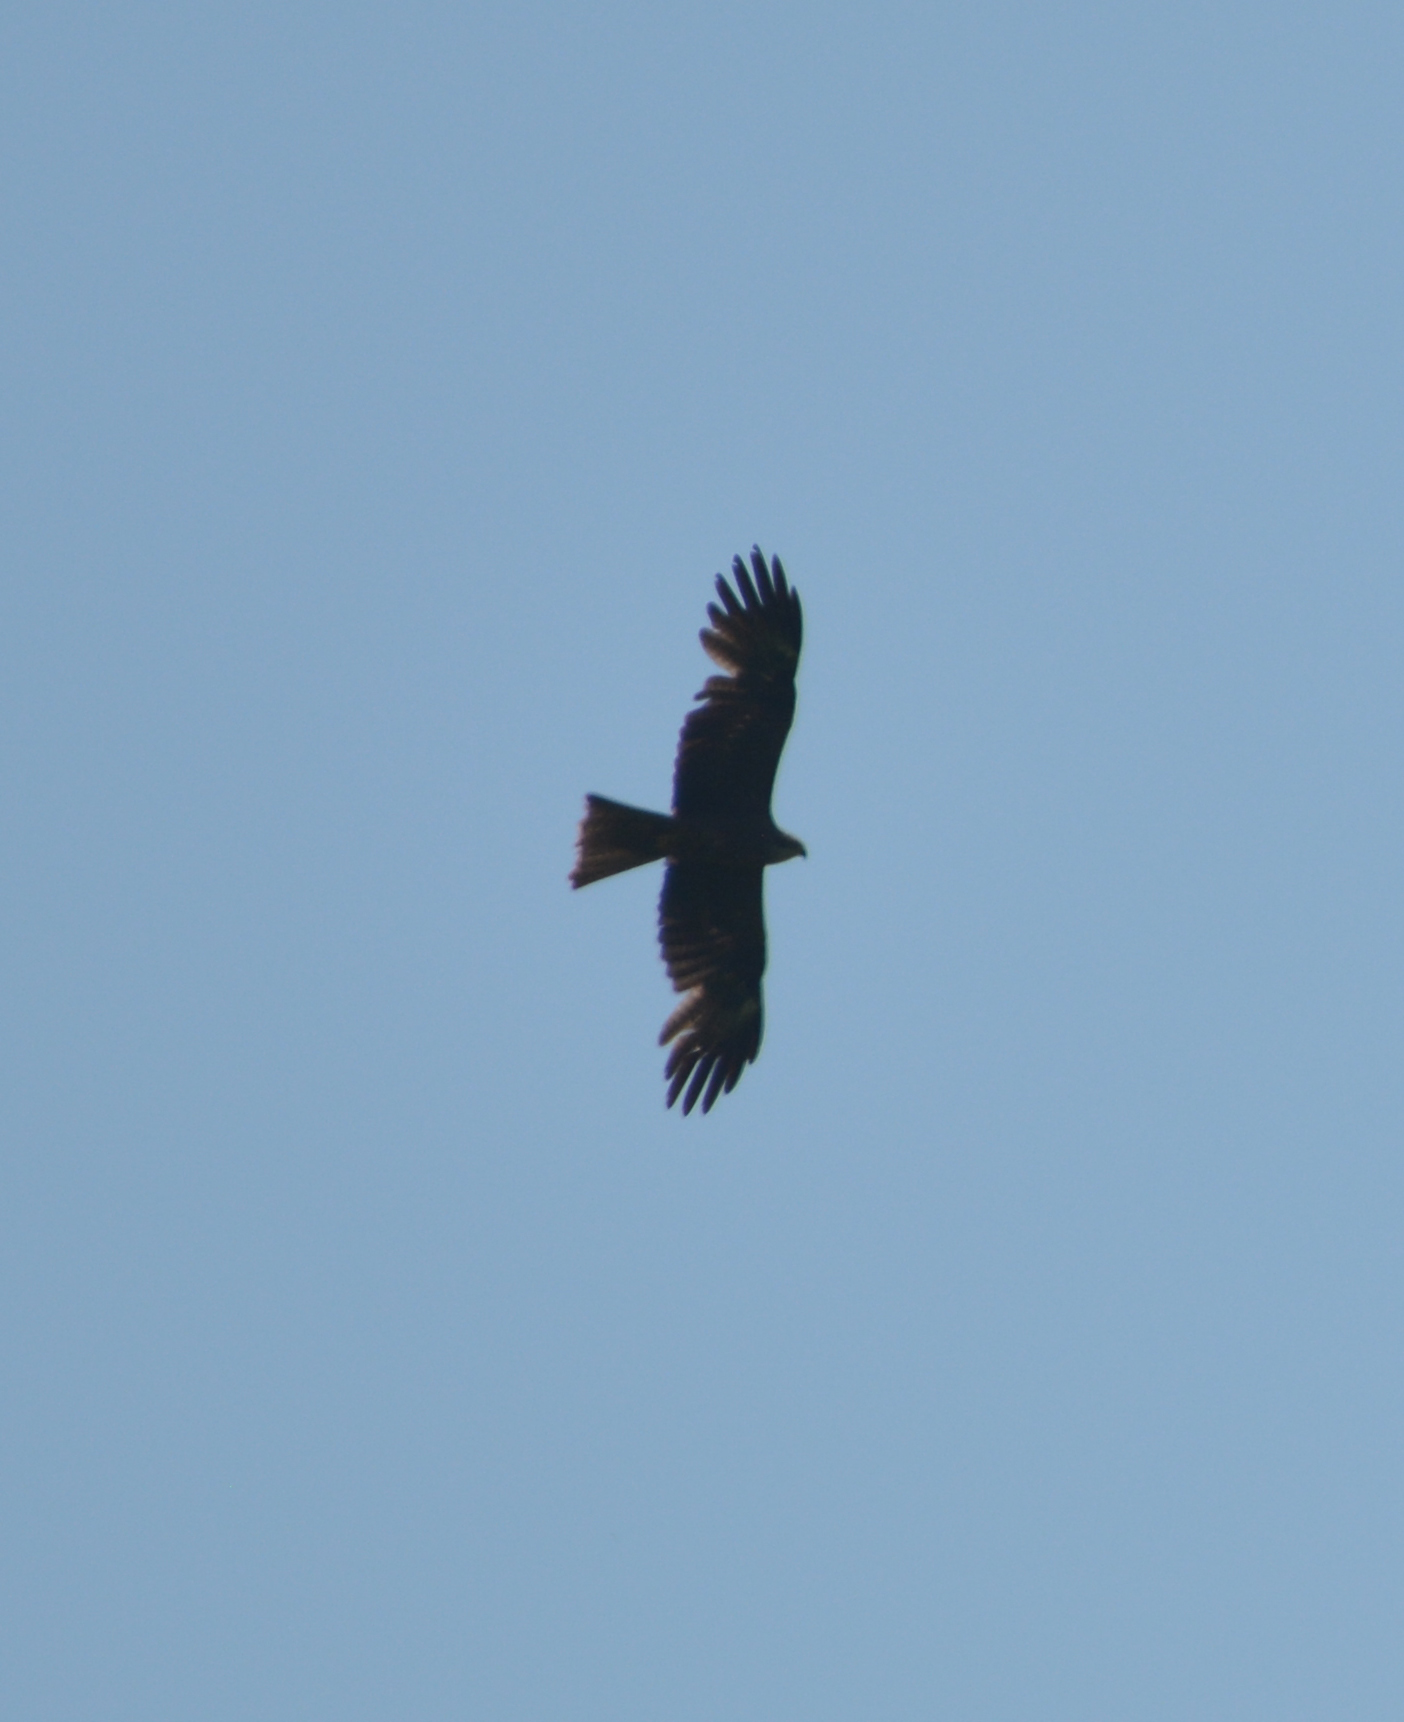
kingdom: Animalia
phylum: Chordata
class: Aves
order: Accipitriformes
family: Accipitridae
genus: Milvus
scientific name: Milvus migrans
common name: Black kite
